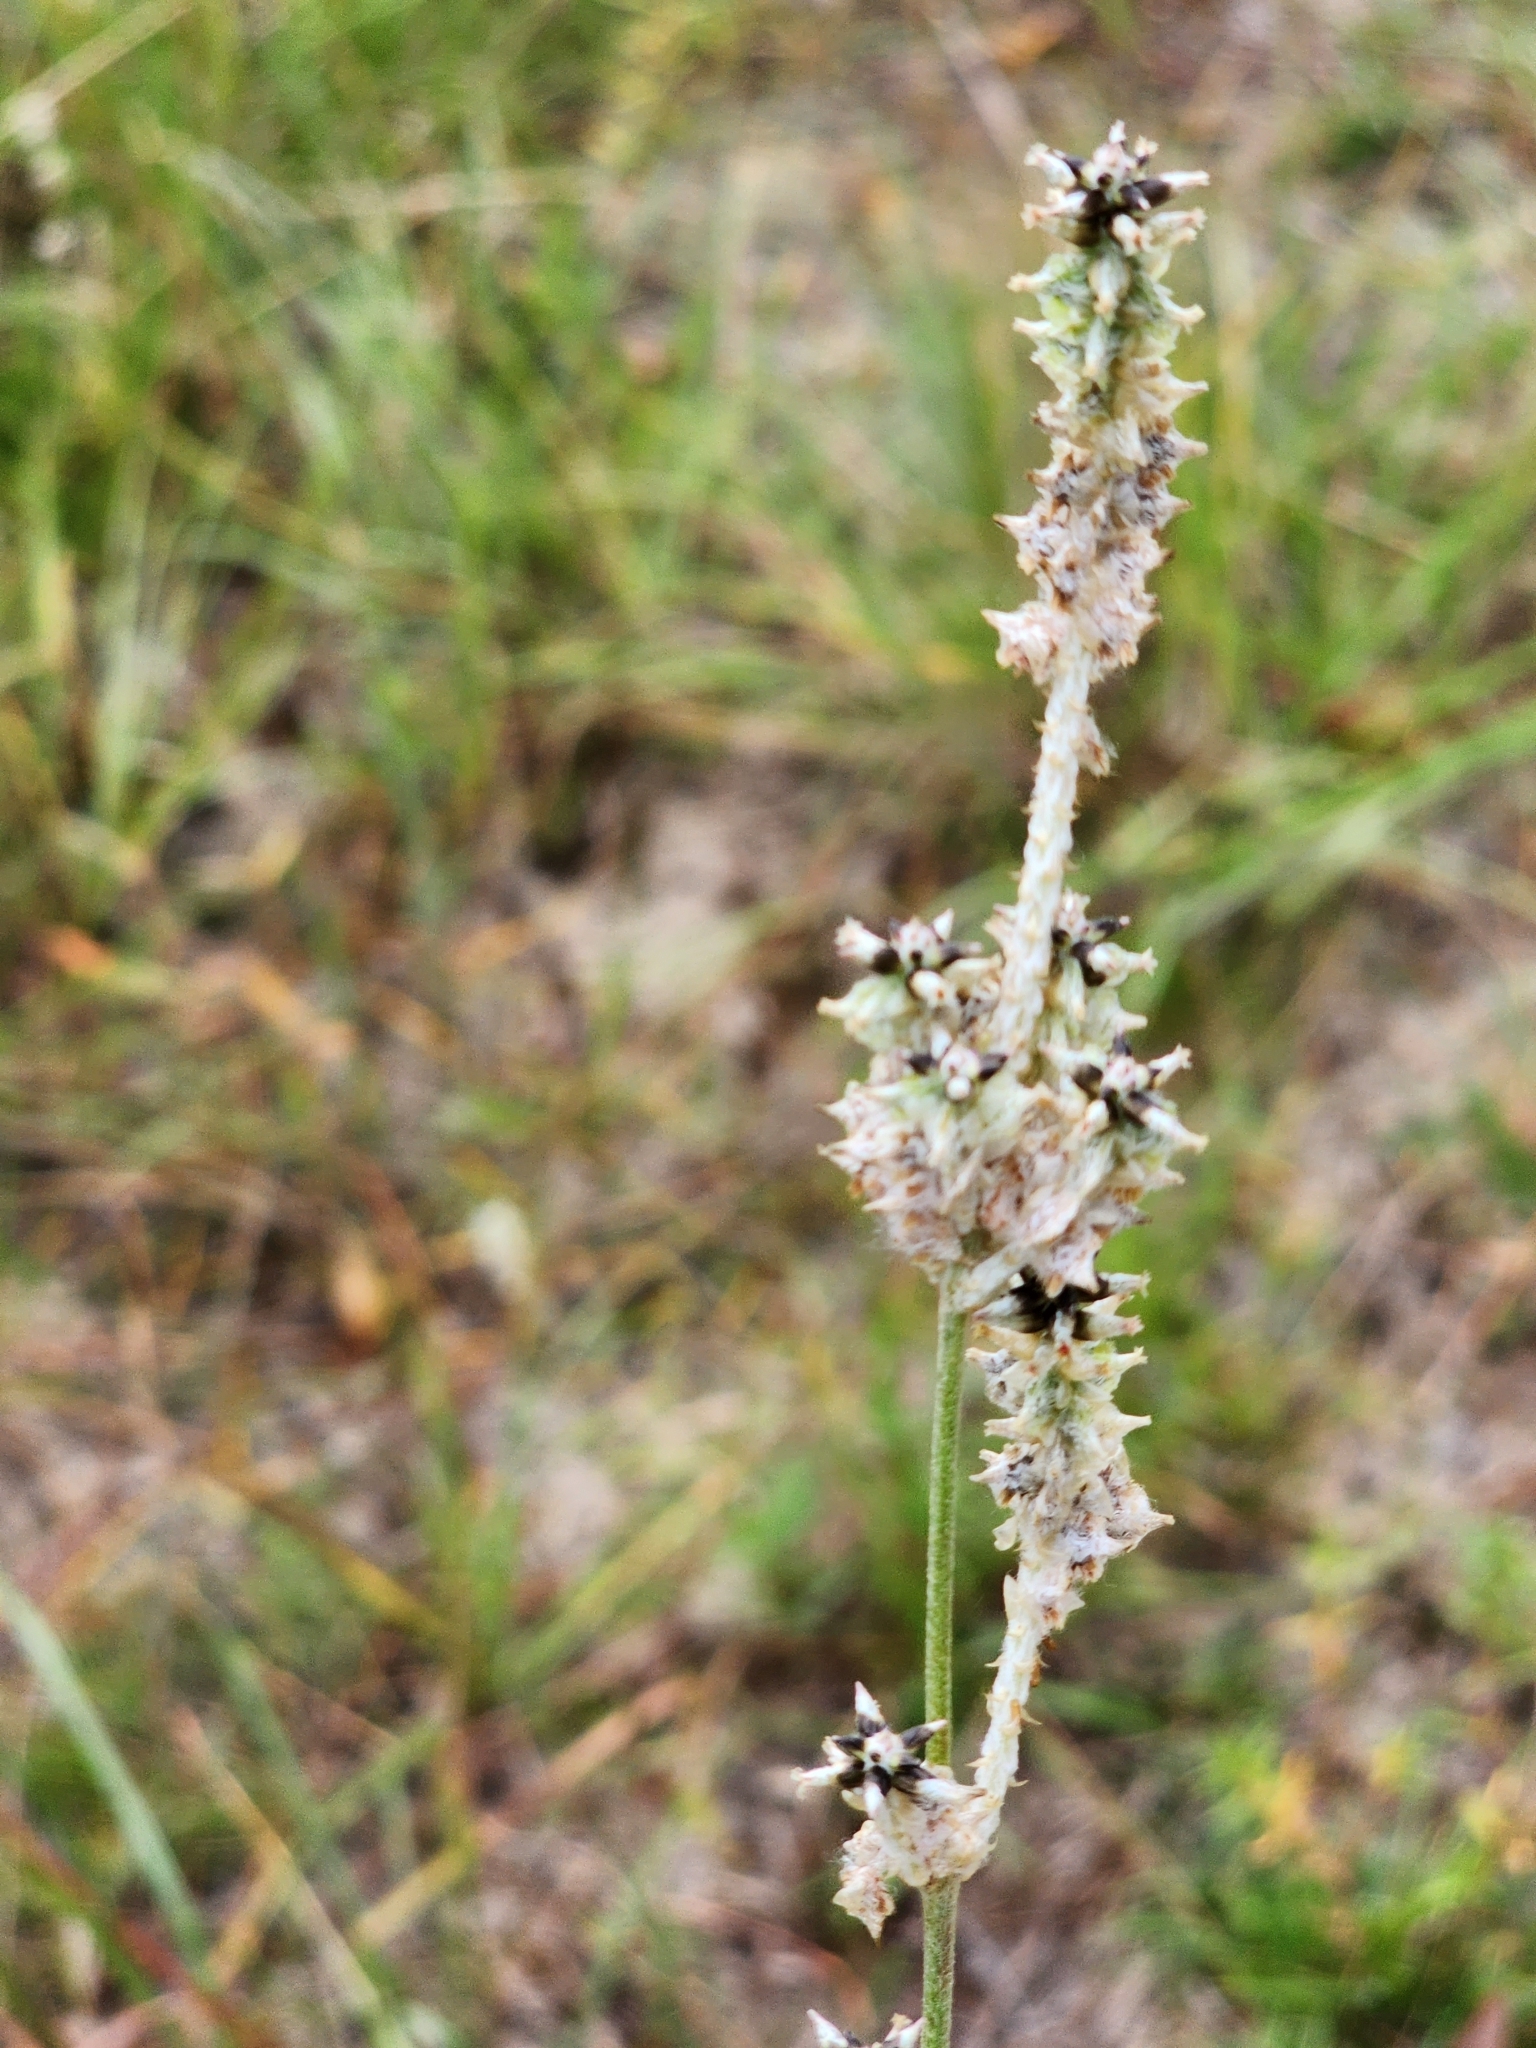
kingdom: Plantae
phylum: Tracheophyta
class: Magnoliopsida
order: Caryophyllales
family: Amaranthaceae
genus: Froelichia
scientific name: Froelichia floridana
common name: Florida snake-cotton
